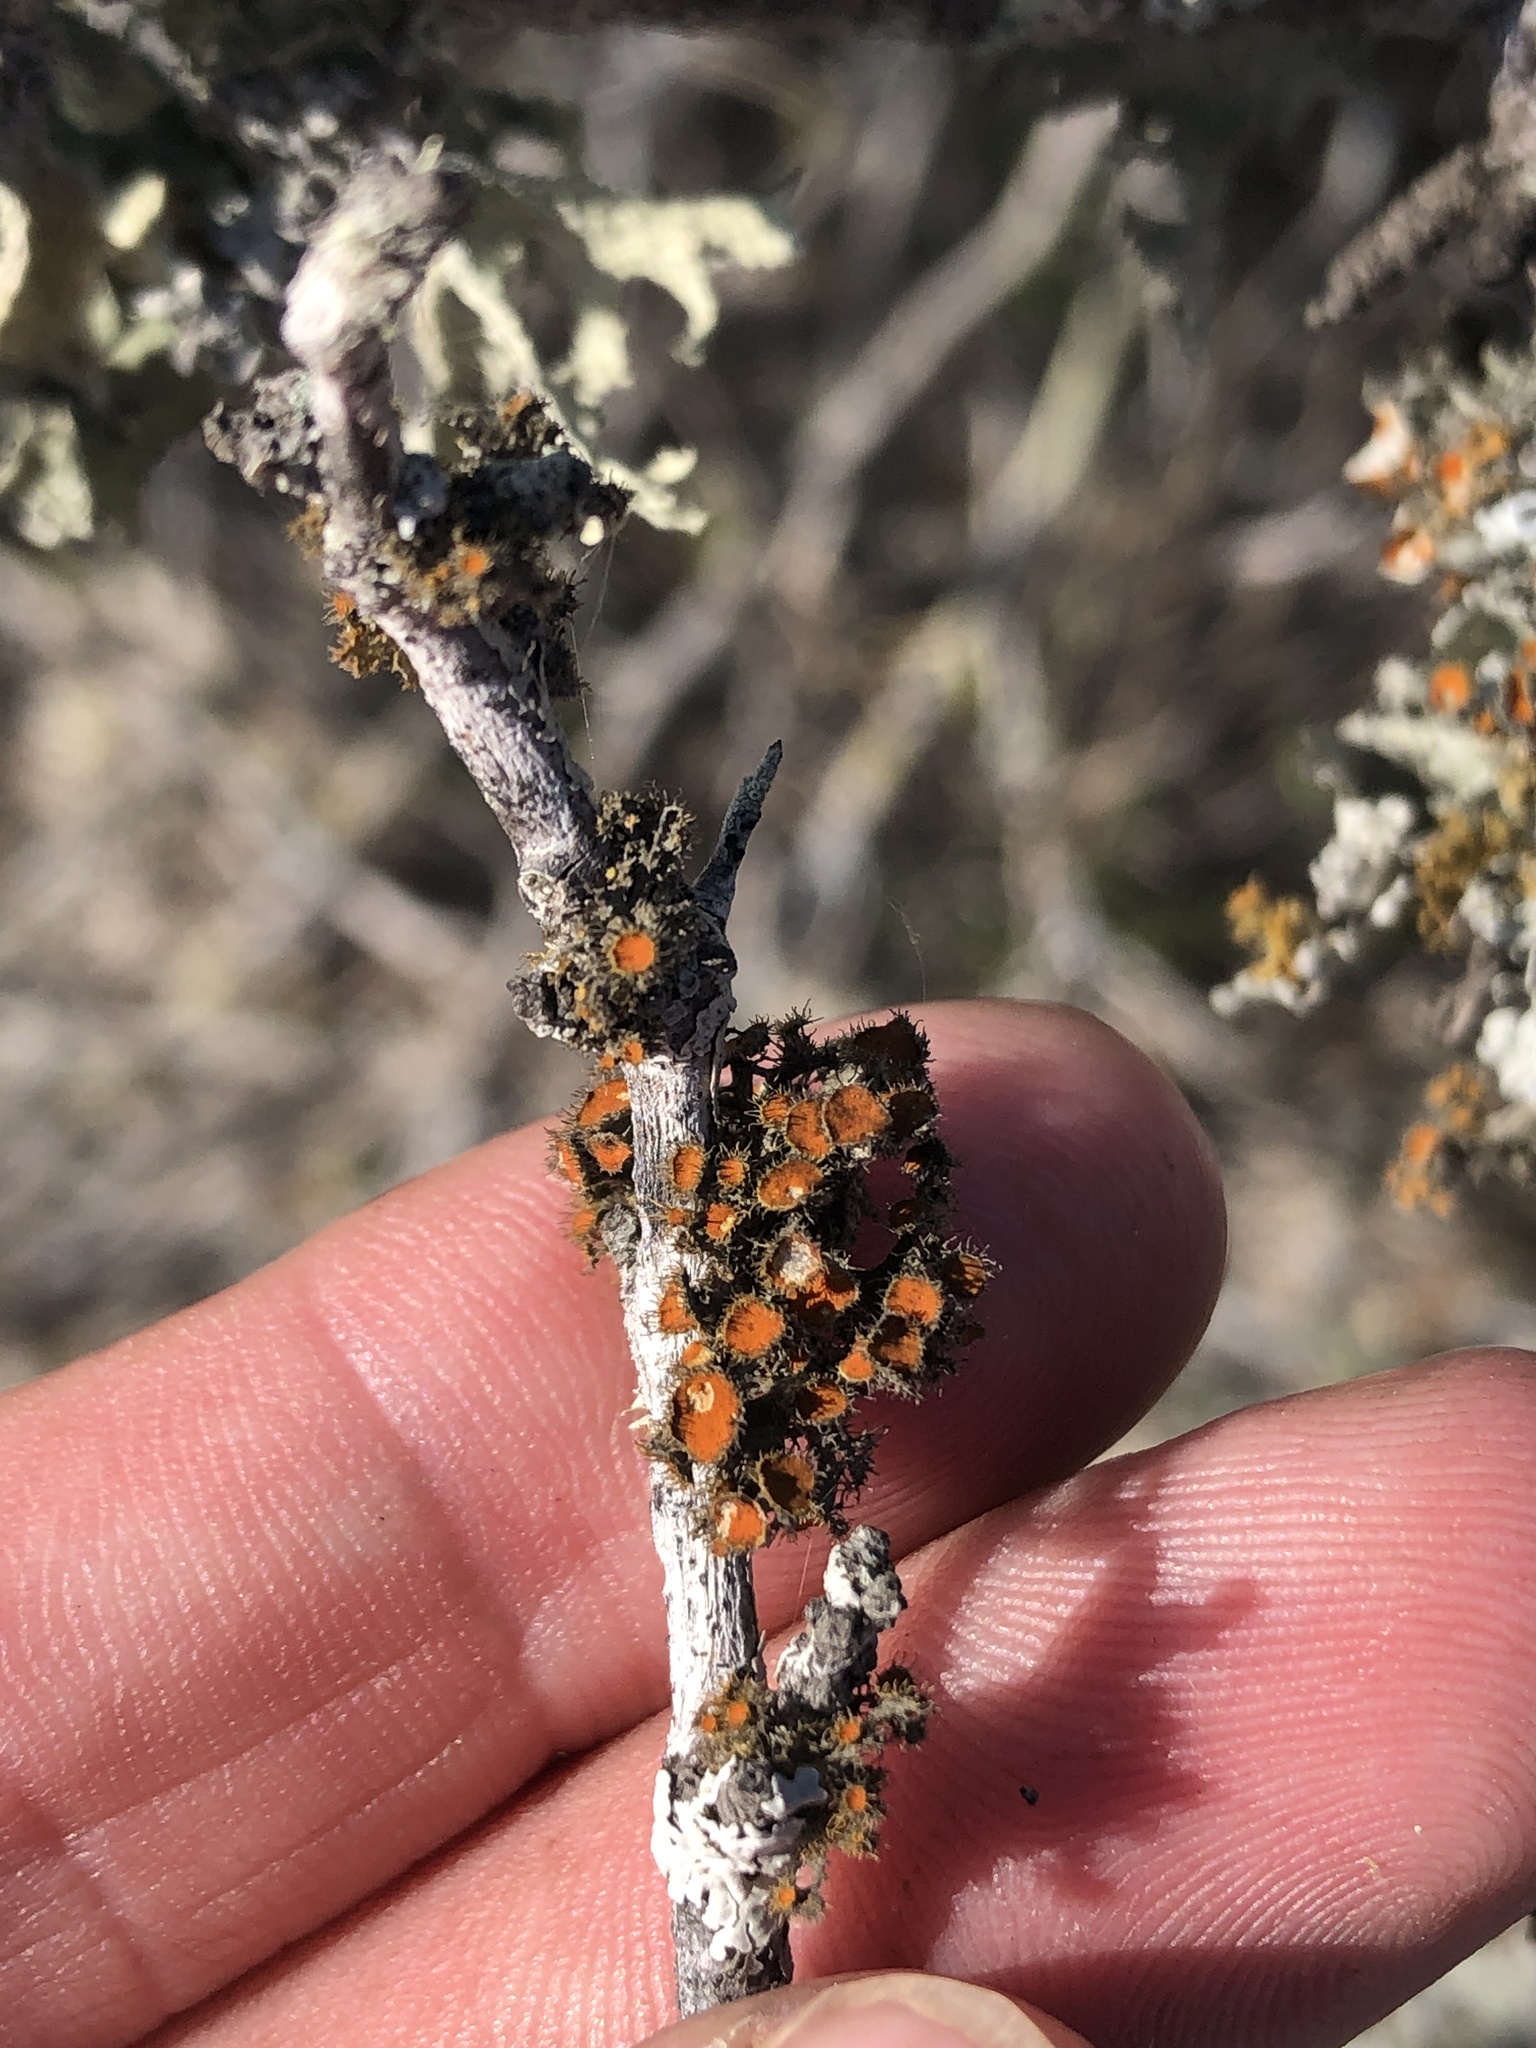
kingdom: Fungi
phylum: Ascomycota
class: Lecanoromycetes
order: Teloschistales
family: Teloschistaceae
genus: Niorma
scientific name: Niorma chrysophthalma
